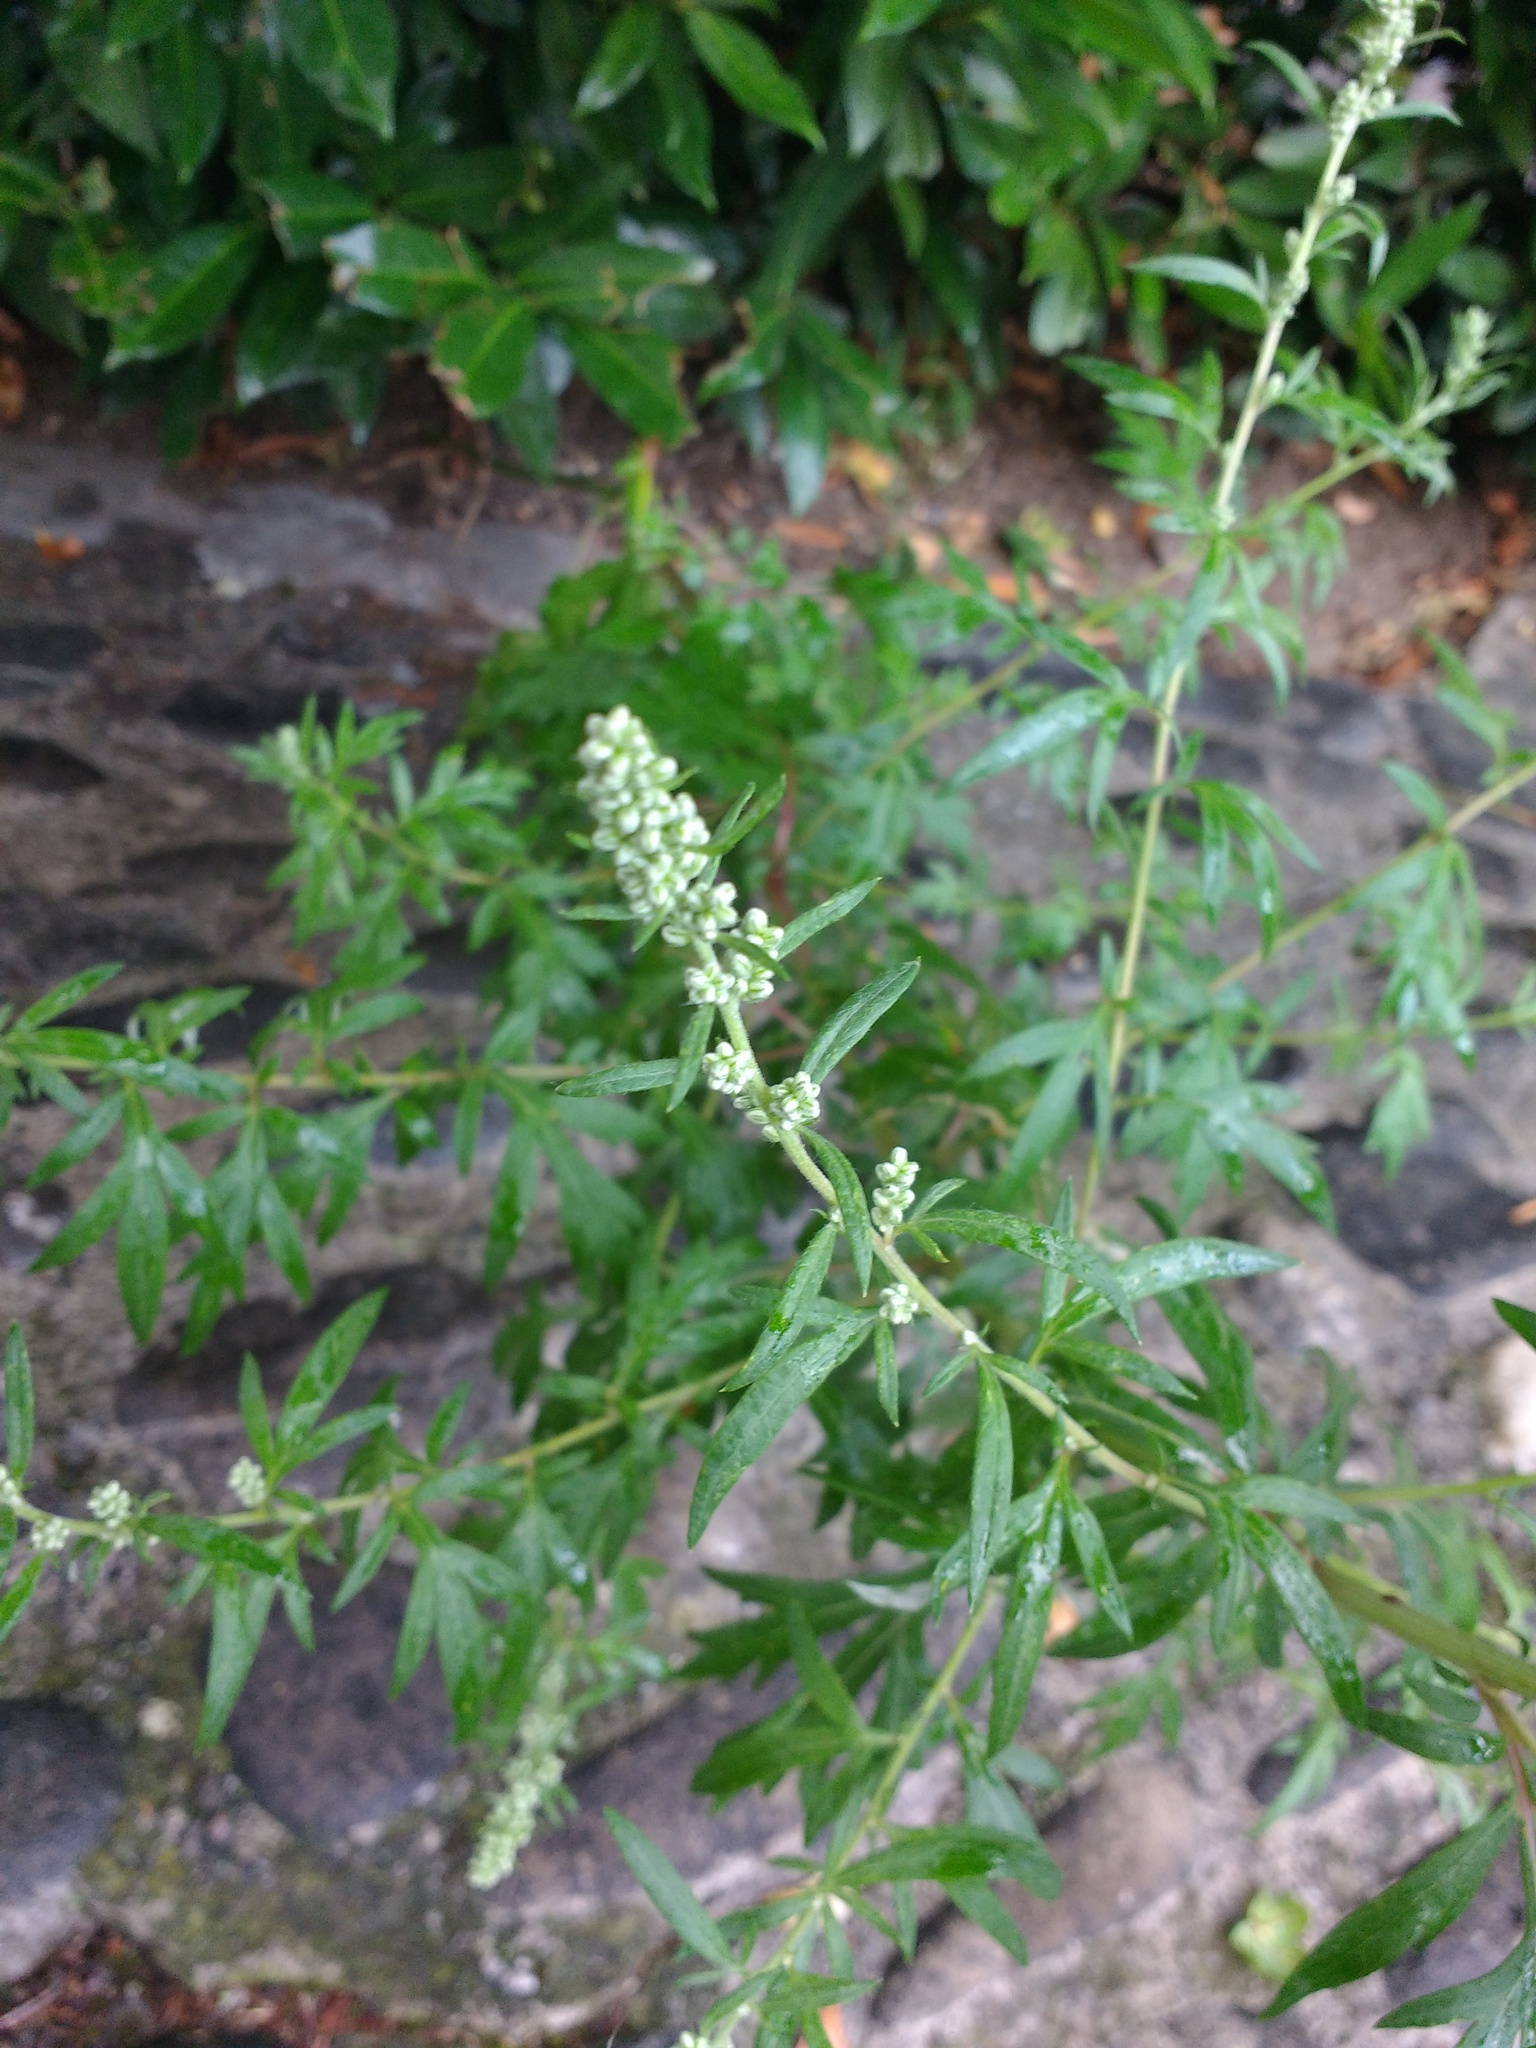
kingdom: Plantae
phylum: Tracheophyta
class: Magnoliopsida
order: Asterales
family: Asteraceae
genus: Artemisia
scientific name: Artemisia vulgaris
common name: Mugwort
